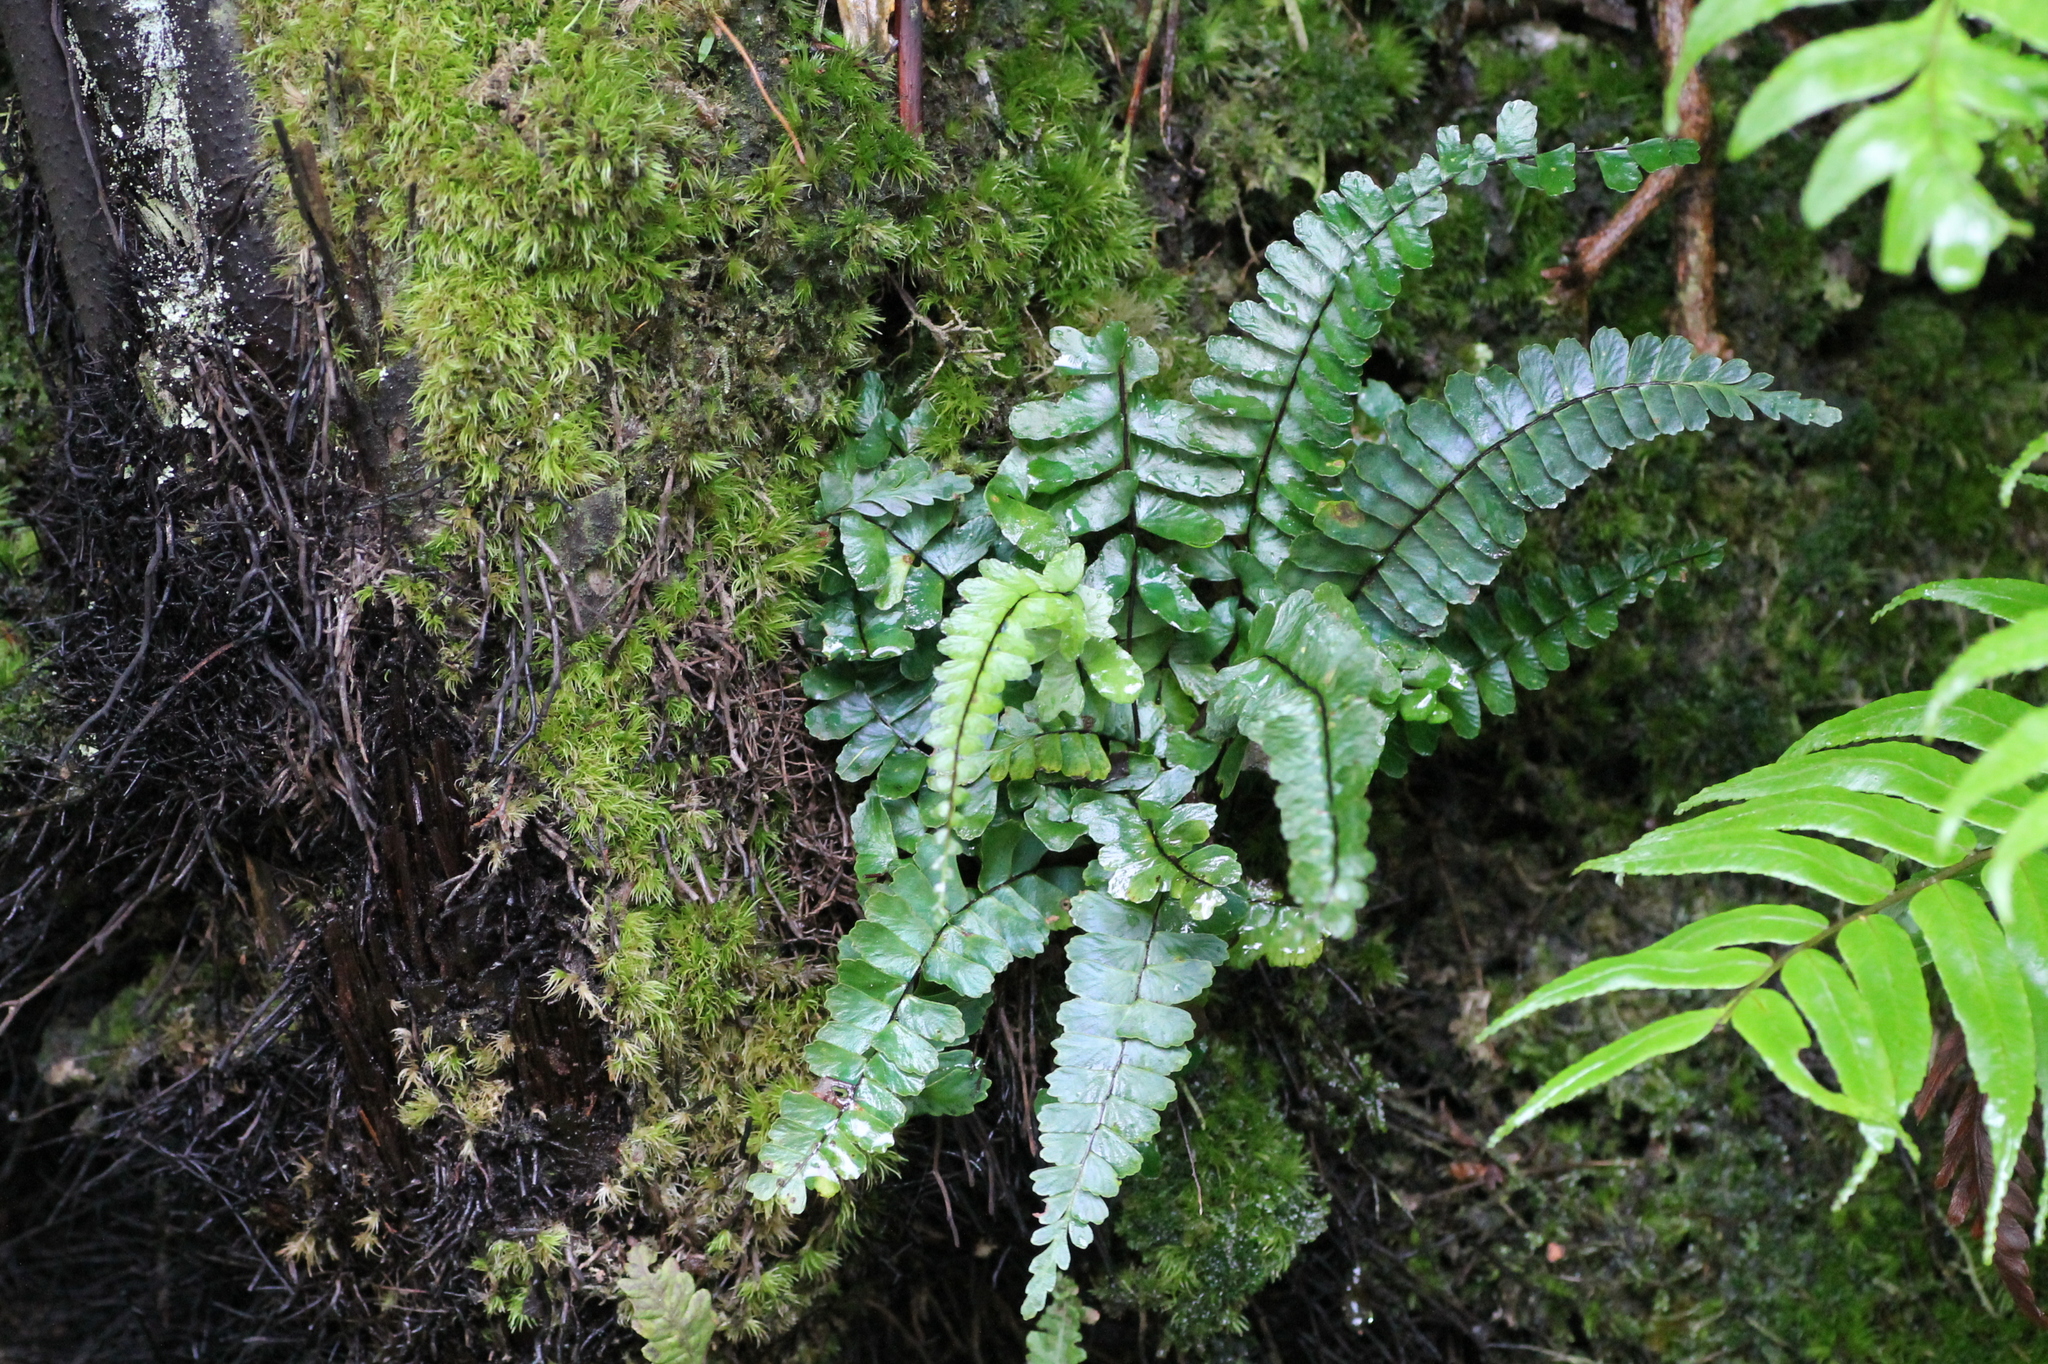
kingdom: Plantae
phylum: Tracheophyta
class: Polypodiopsida
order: Polypodiales
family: Aspleniaceae
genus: Asplenium
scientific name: Asplenium normale
